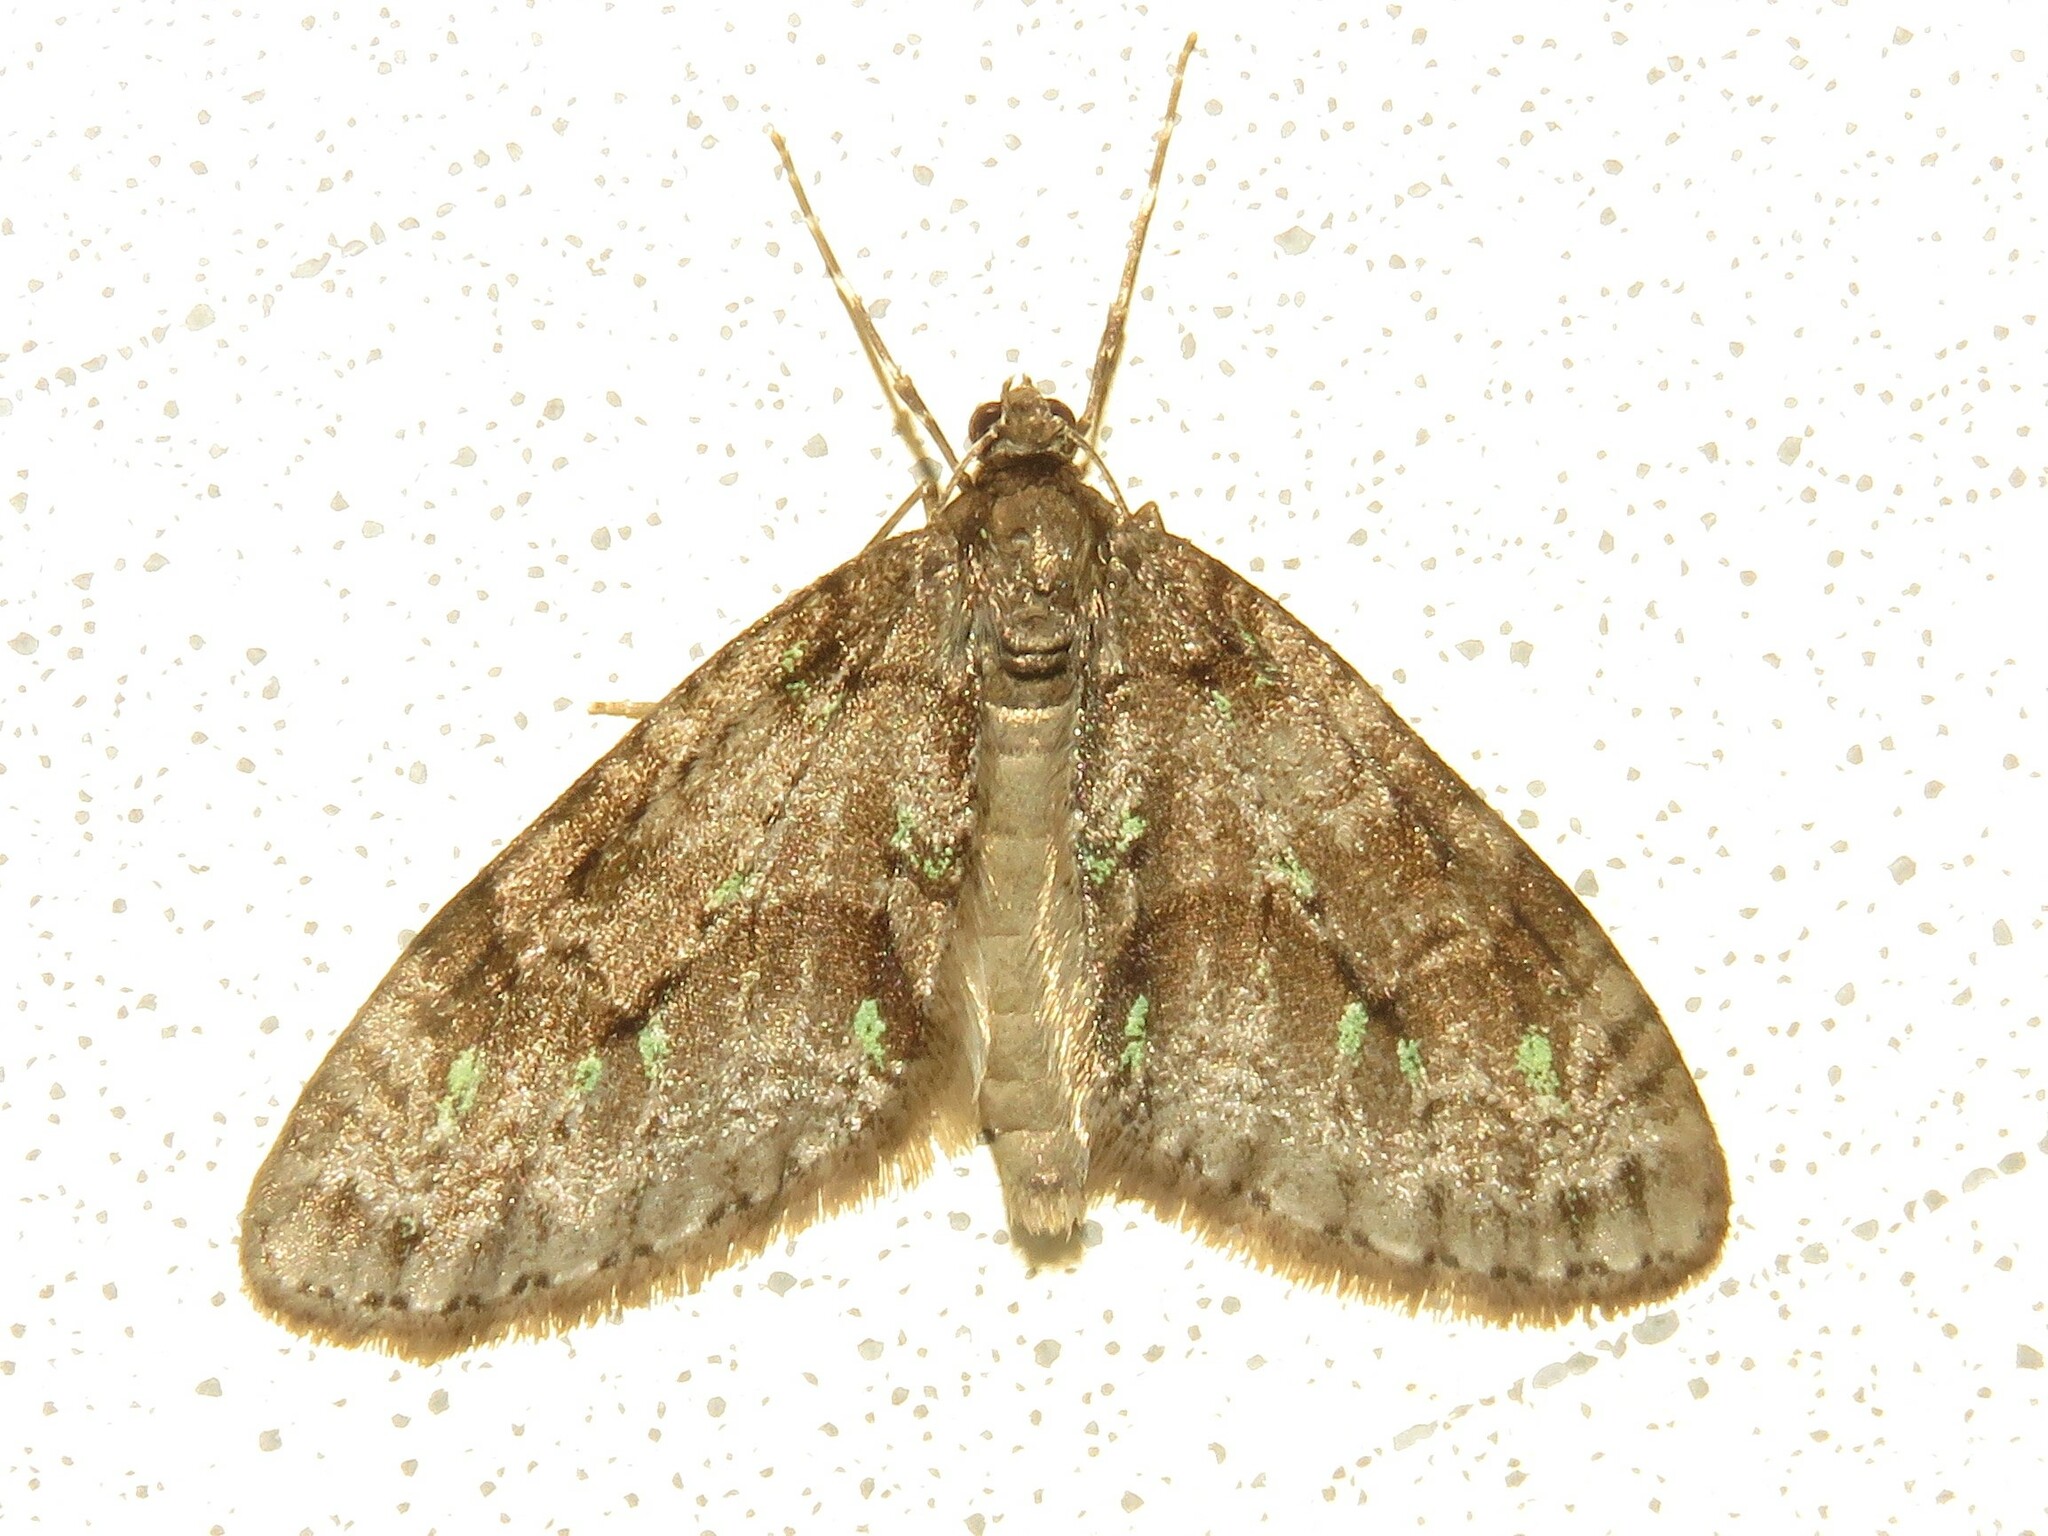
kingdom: Animalia
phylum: Arthropoda
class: Insecta
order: Lepidoptera
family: Geometridae
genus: Cladara
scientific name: Cladara limitaria
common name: Mottled gray carpet
